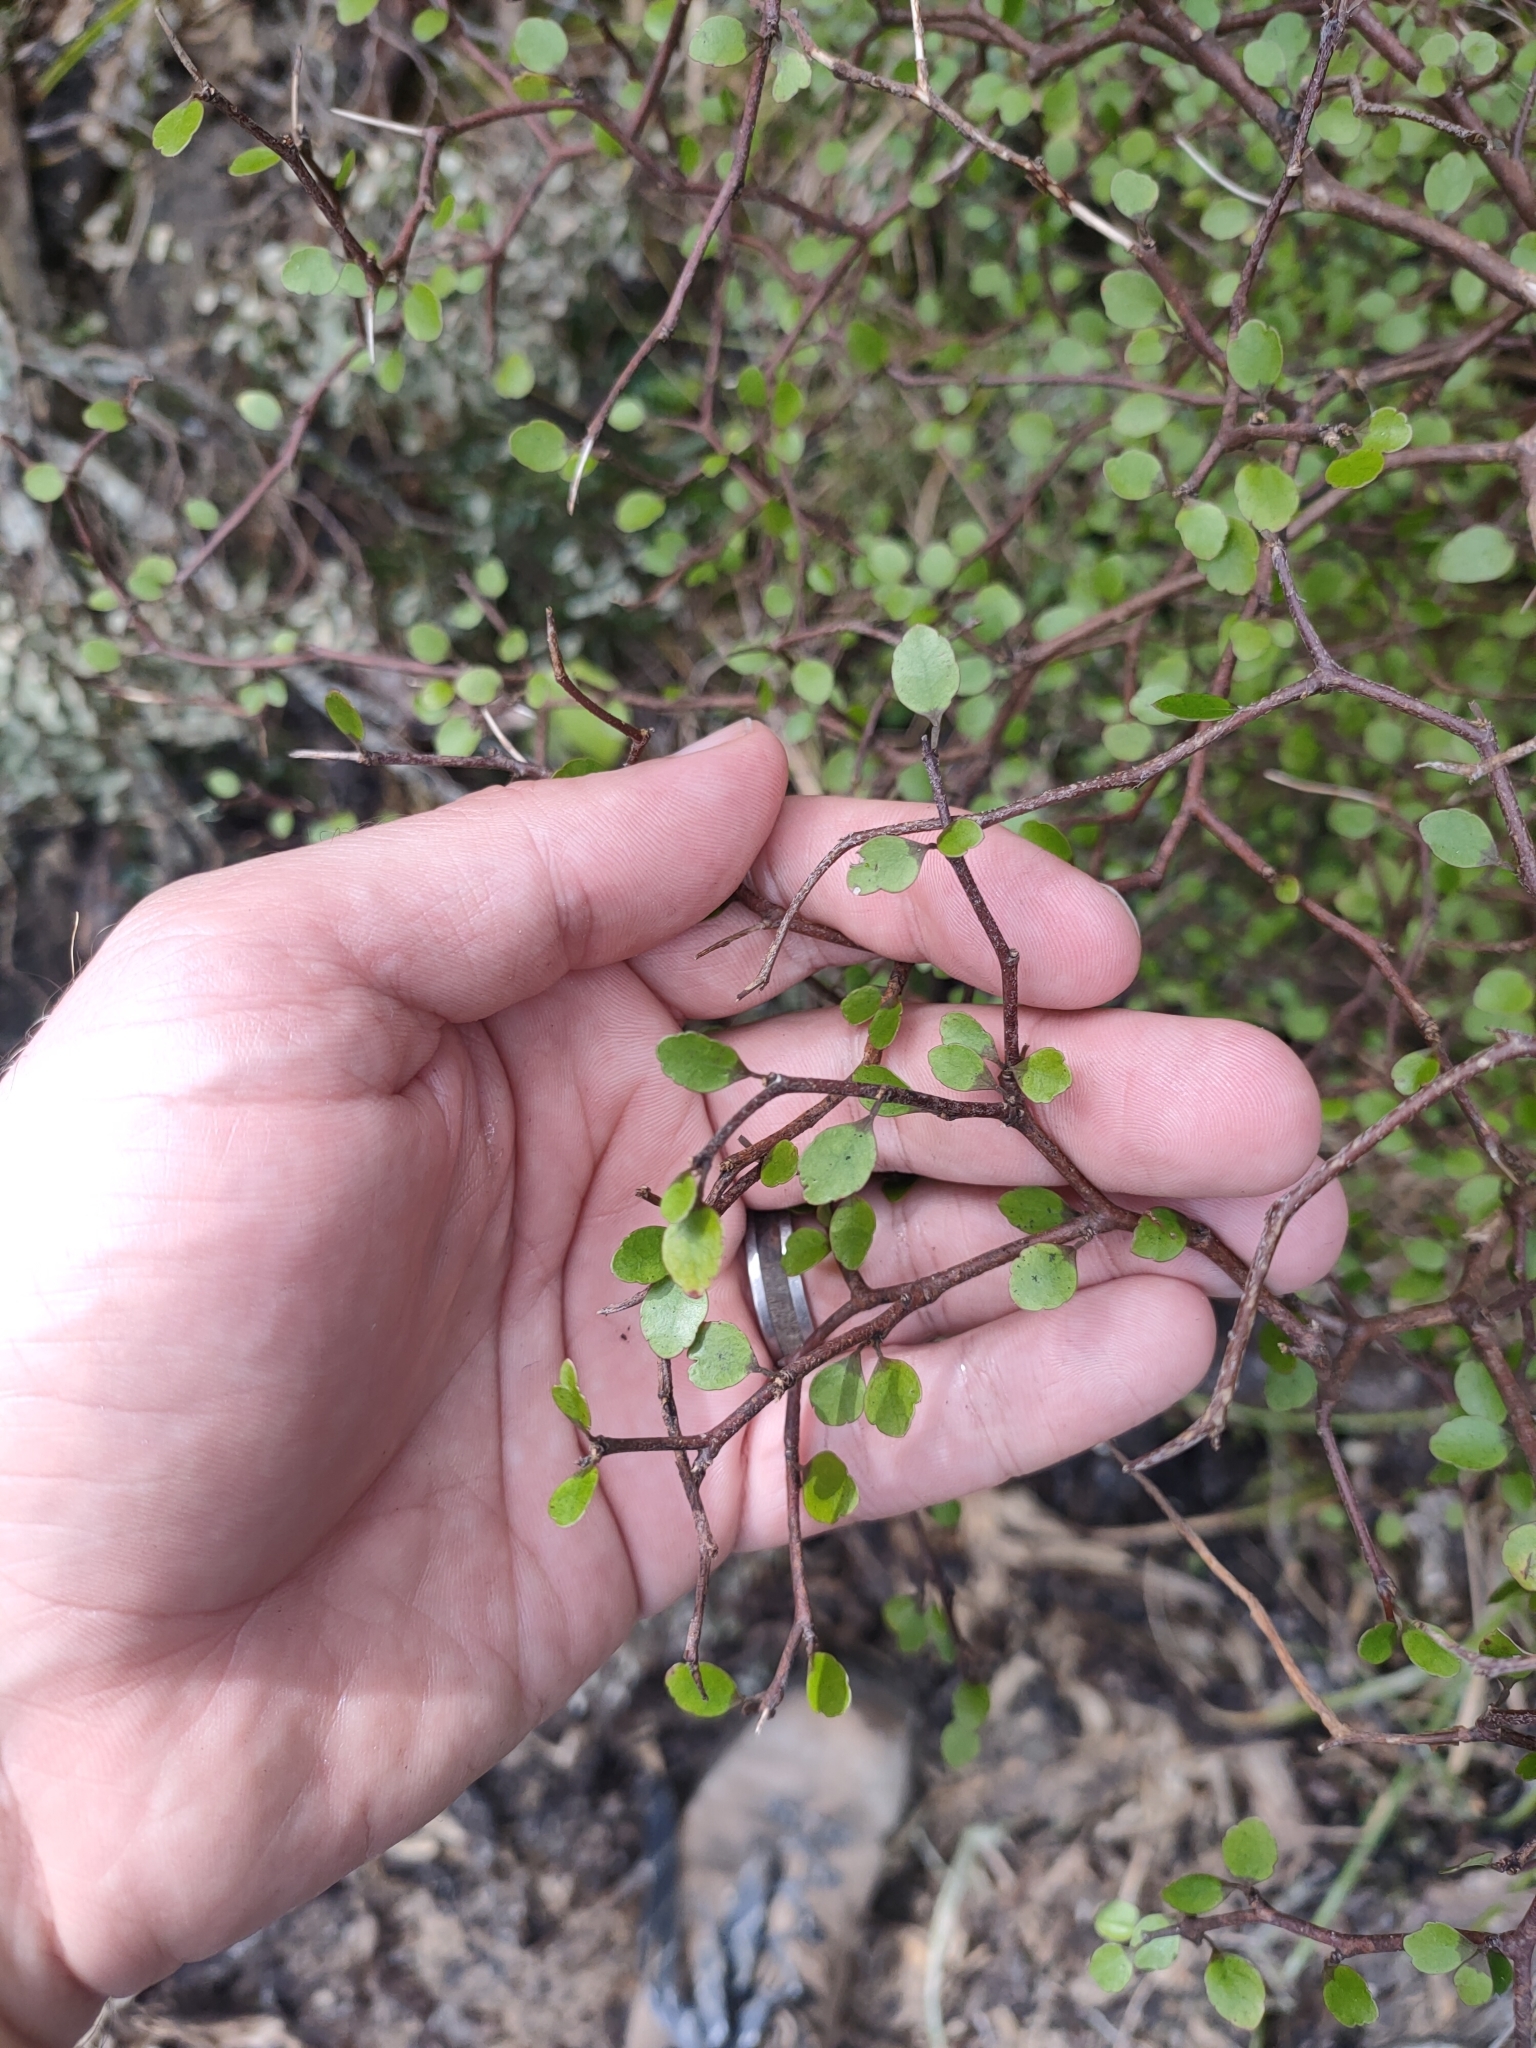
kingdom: Plantae
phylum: Tracheophyta
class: Magnoliopsida
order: Apiales
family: Araliaceae
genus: Raukaua
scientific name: Raukaua anomalus
